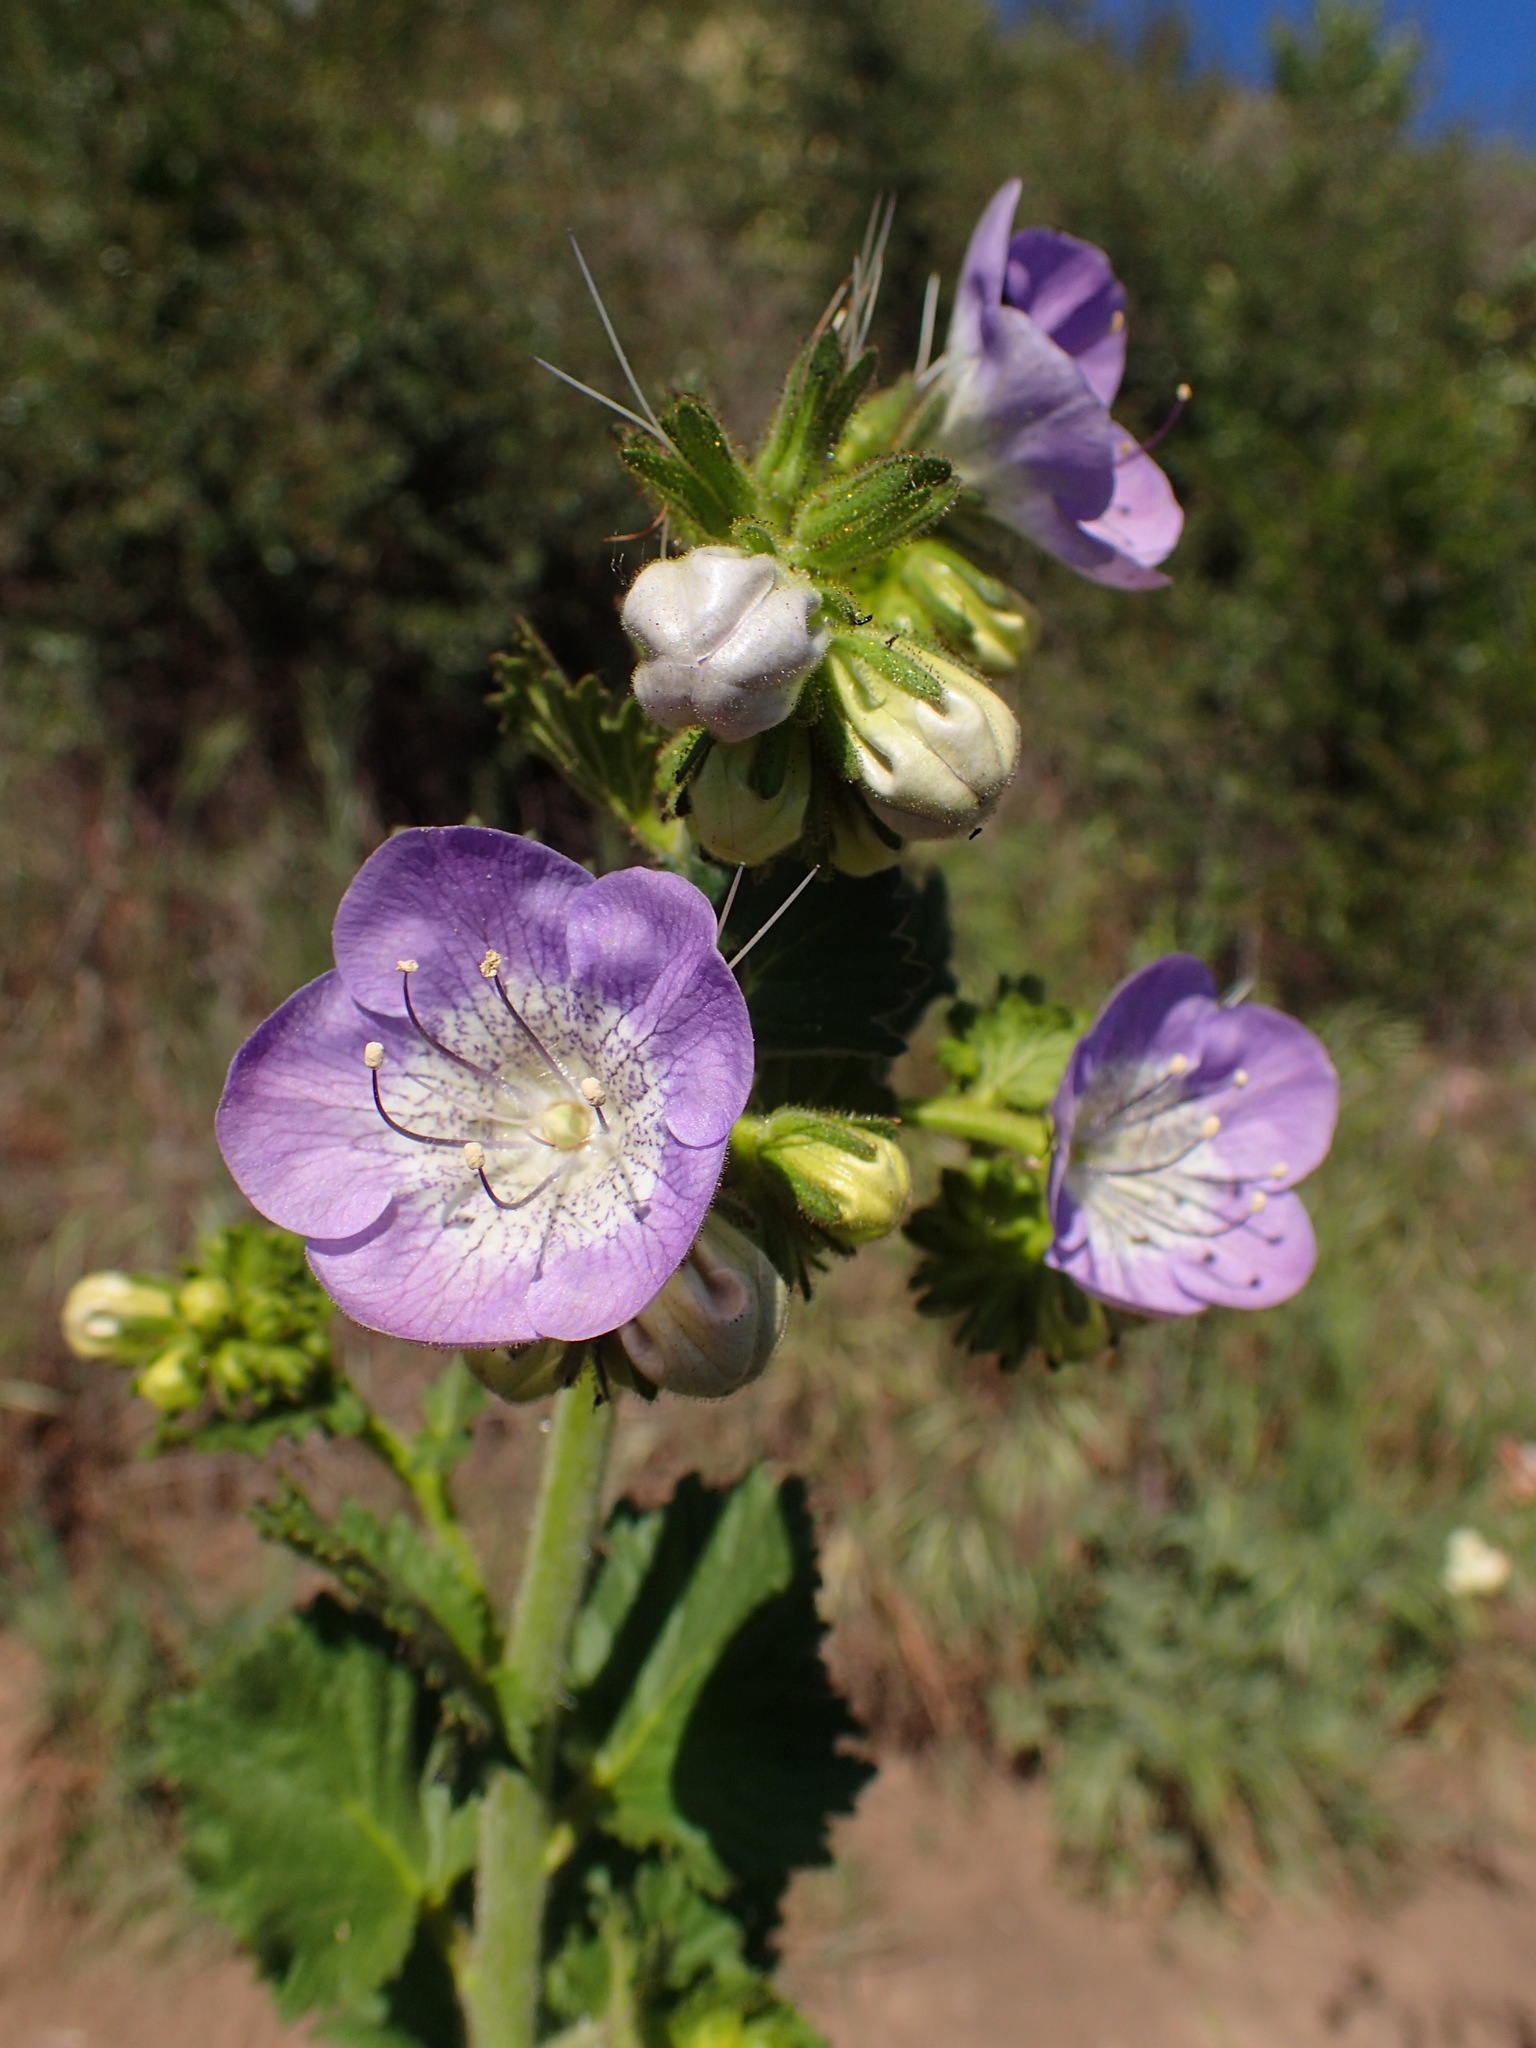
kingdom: Plantae
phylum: Tracheophyta
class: Magnoliopsida
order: Boraginales
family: Hydrophyllaceae
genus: Phacelia
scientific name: Phacelia grandiflora
